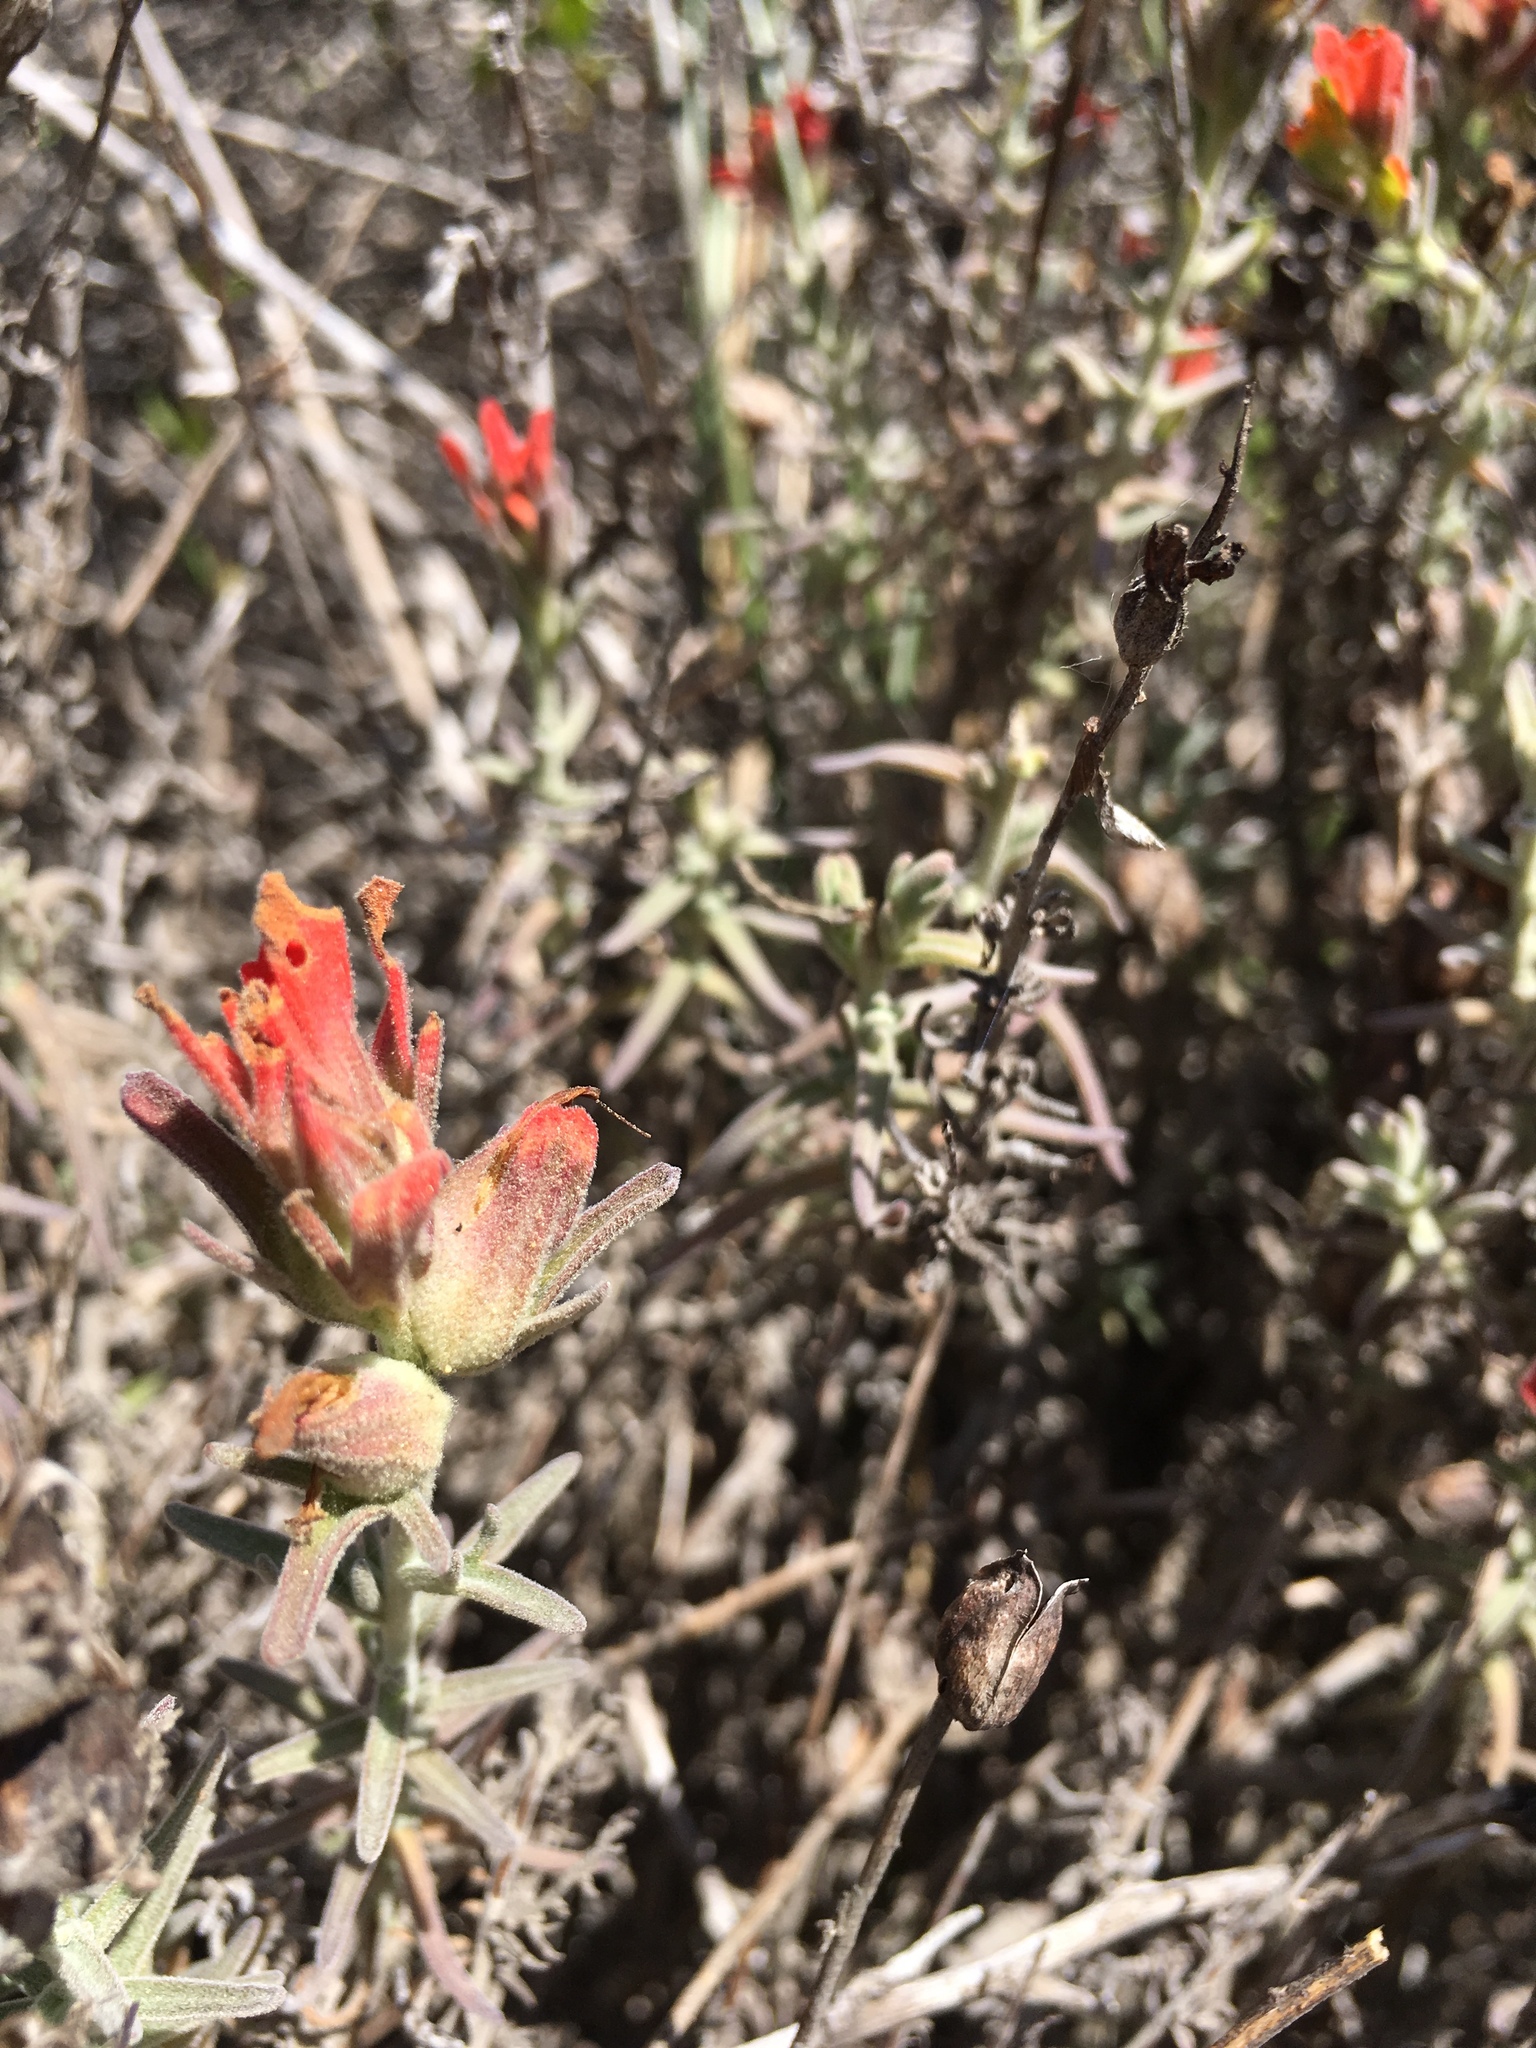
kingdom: Plantae
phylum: Tracheophyta
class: Magnoliopsida
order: Lamiales
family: Orobanchaceae
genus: Castilleja
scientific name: Castilleja foliolosa
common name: Woolly indian paintbrush
